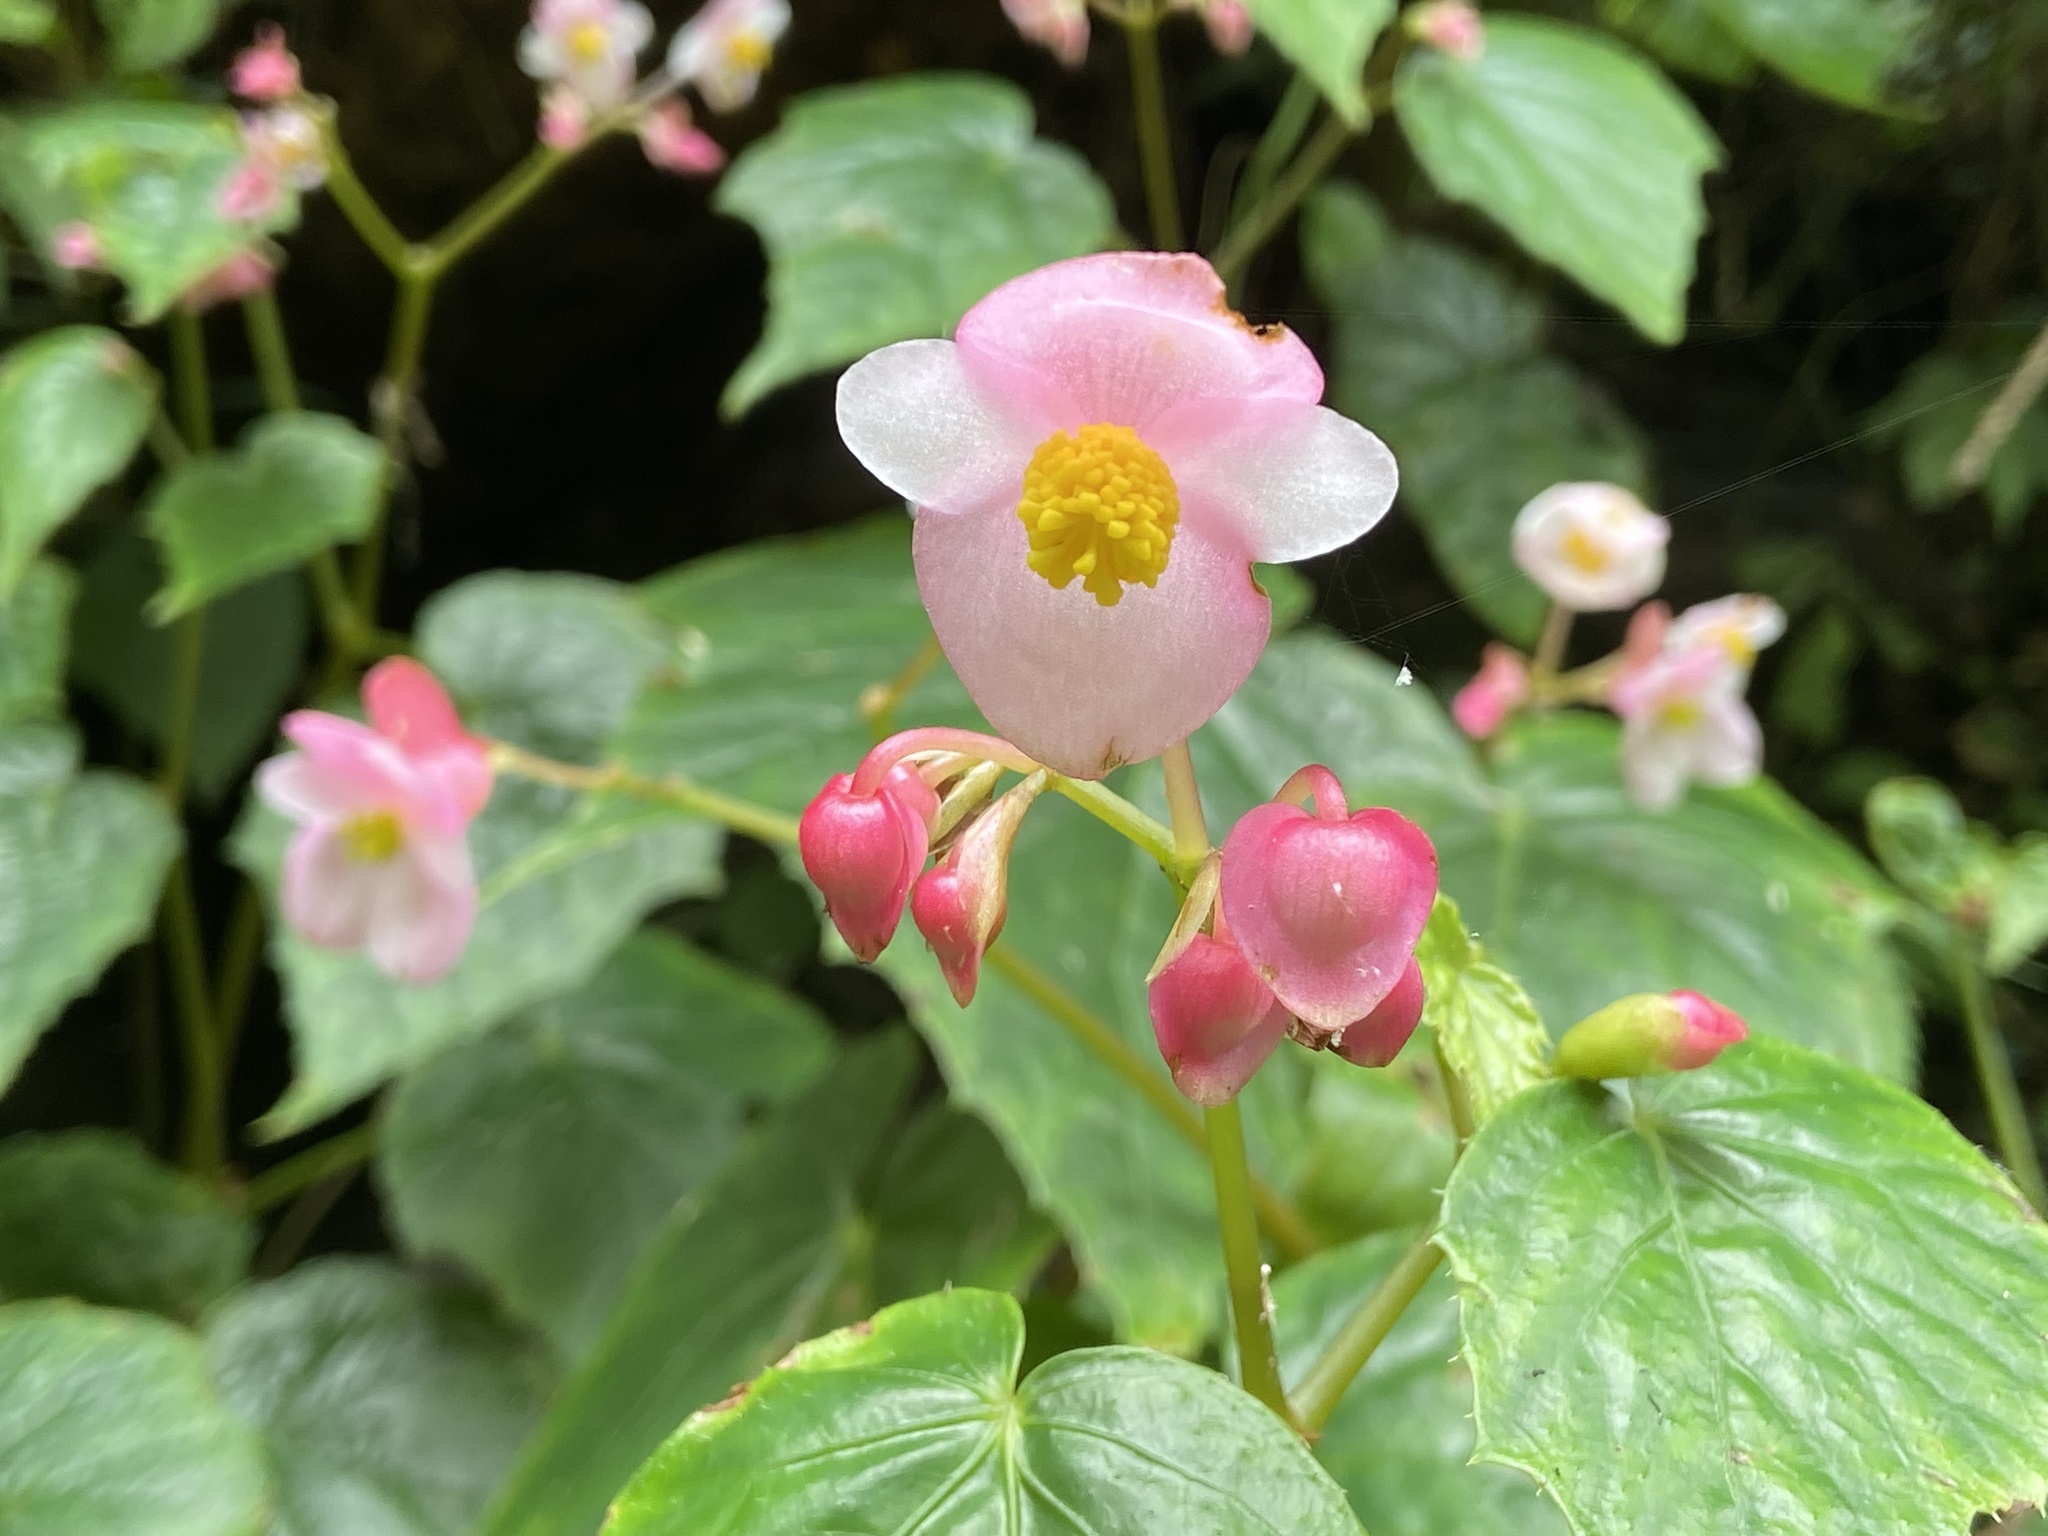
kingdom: Plantae
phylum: Tracheophyta
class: Magnoliopsida
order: Cucurbitales
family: Begoniaceae
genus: Begonia
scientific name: Begonia formosana
